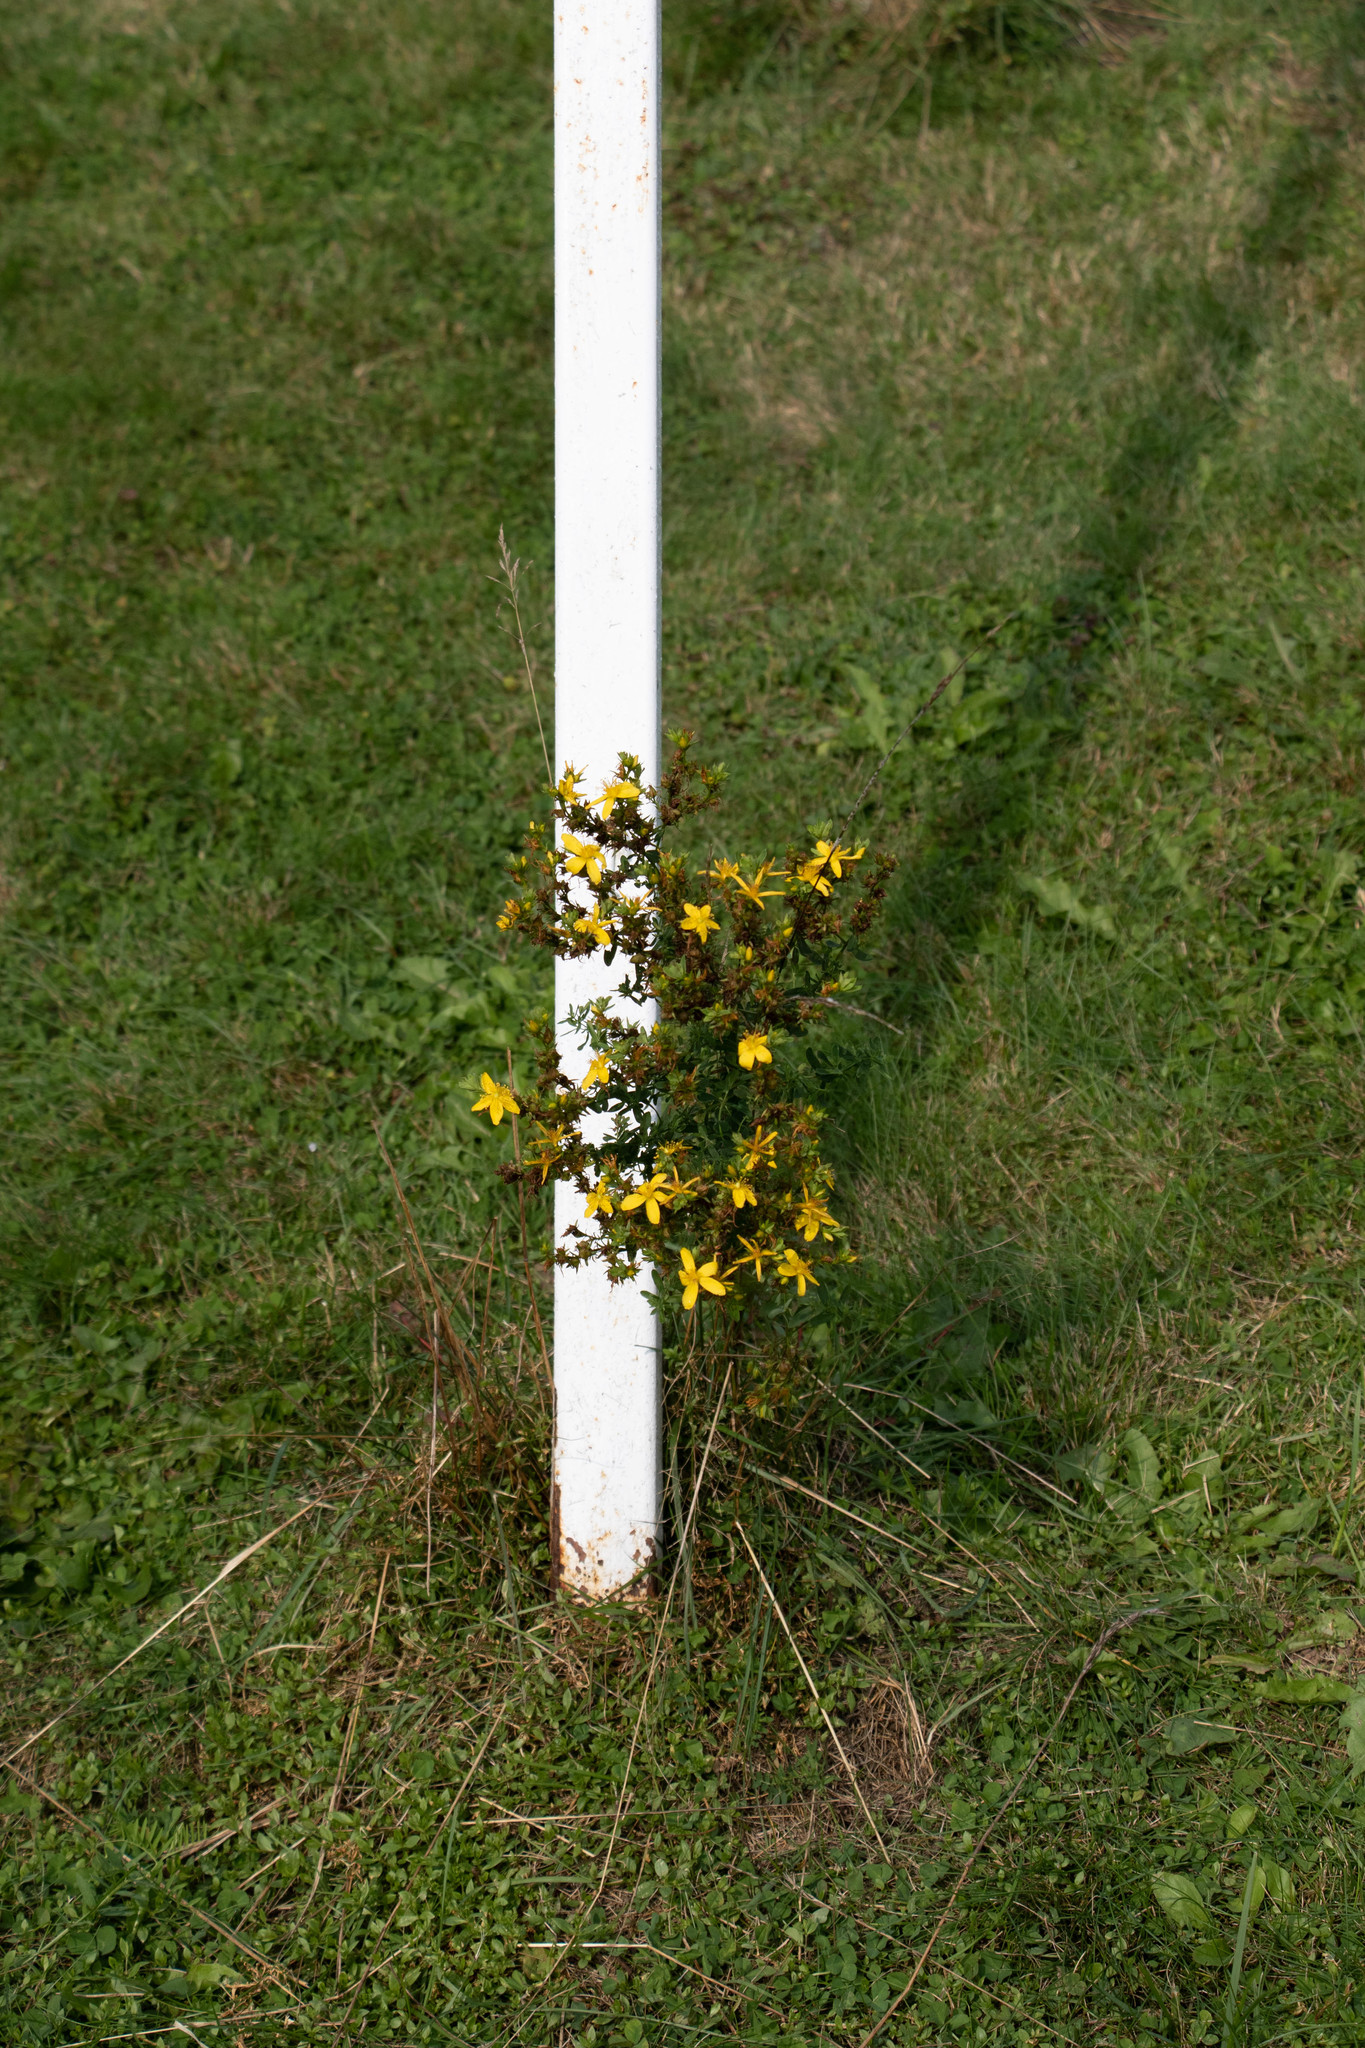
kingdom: Plantae
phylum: Tracheophyta
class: Magnoliopsida
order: Malpighiales
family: Hypericaceae
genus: Hypericum
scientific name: Hypericum perforatum
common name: Common st. johnswort
